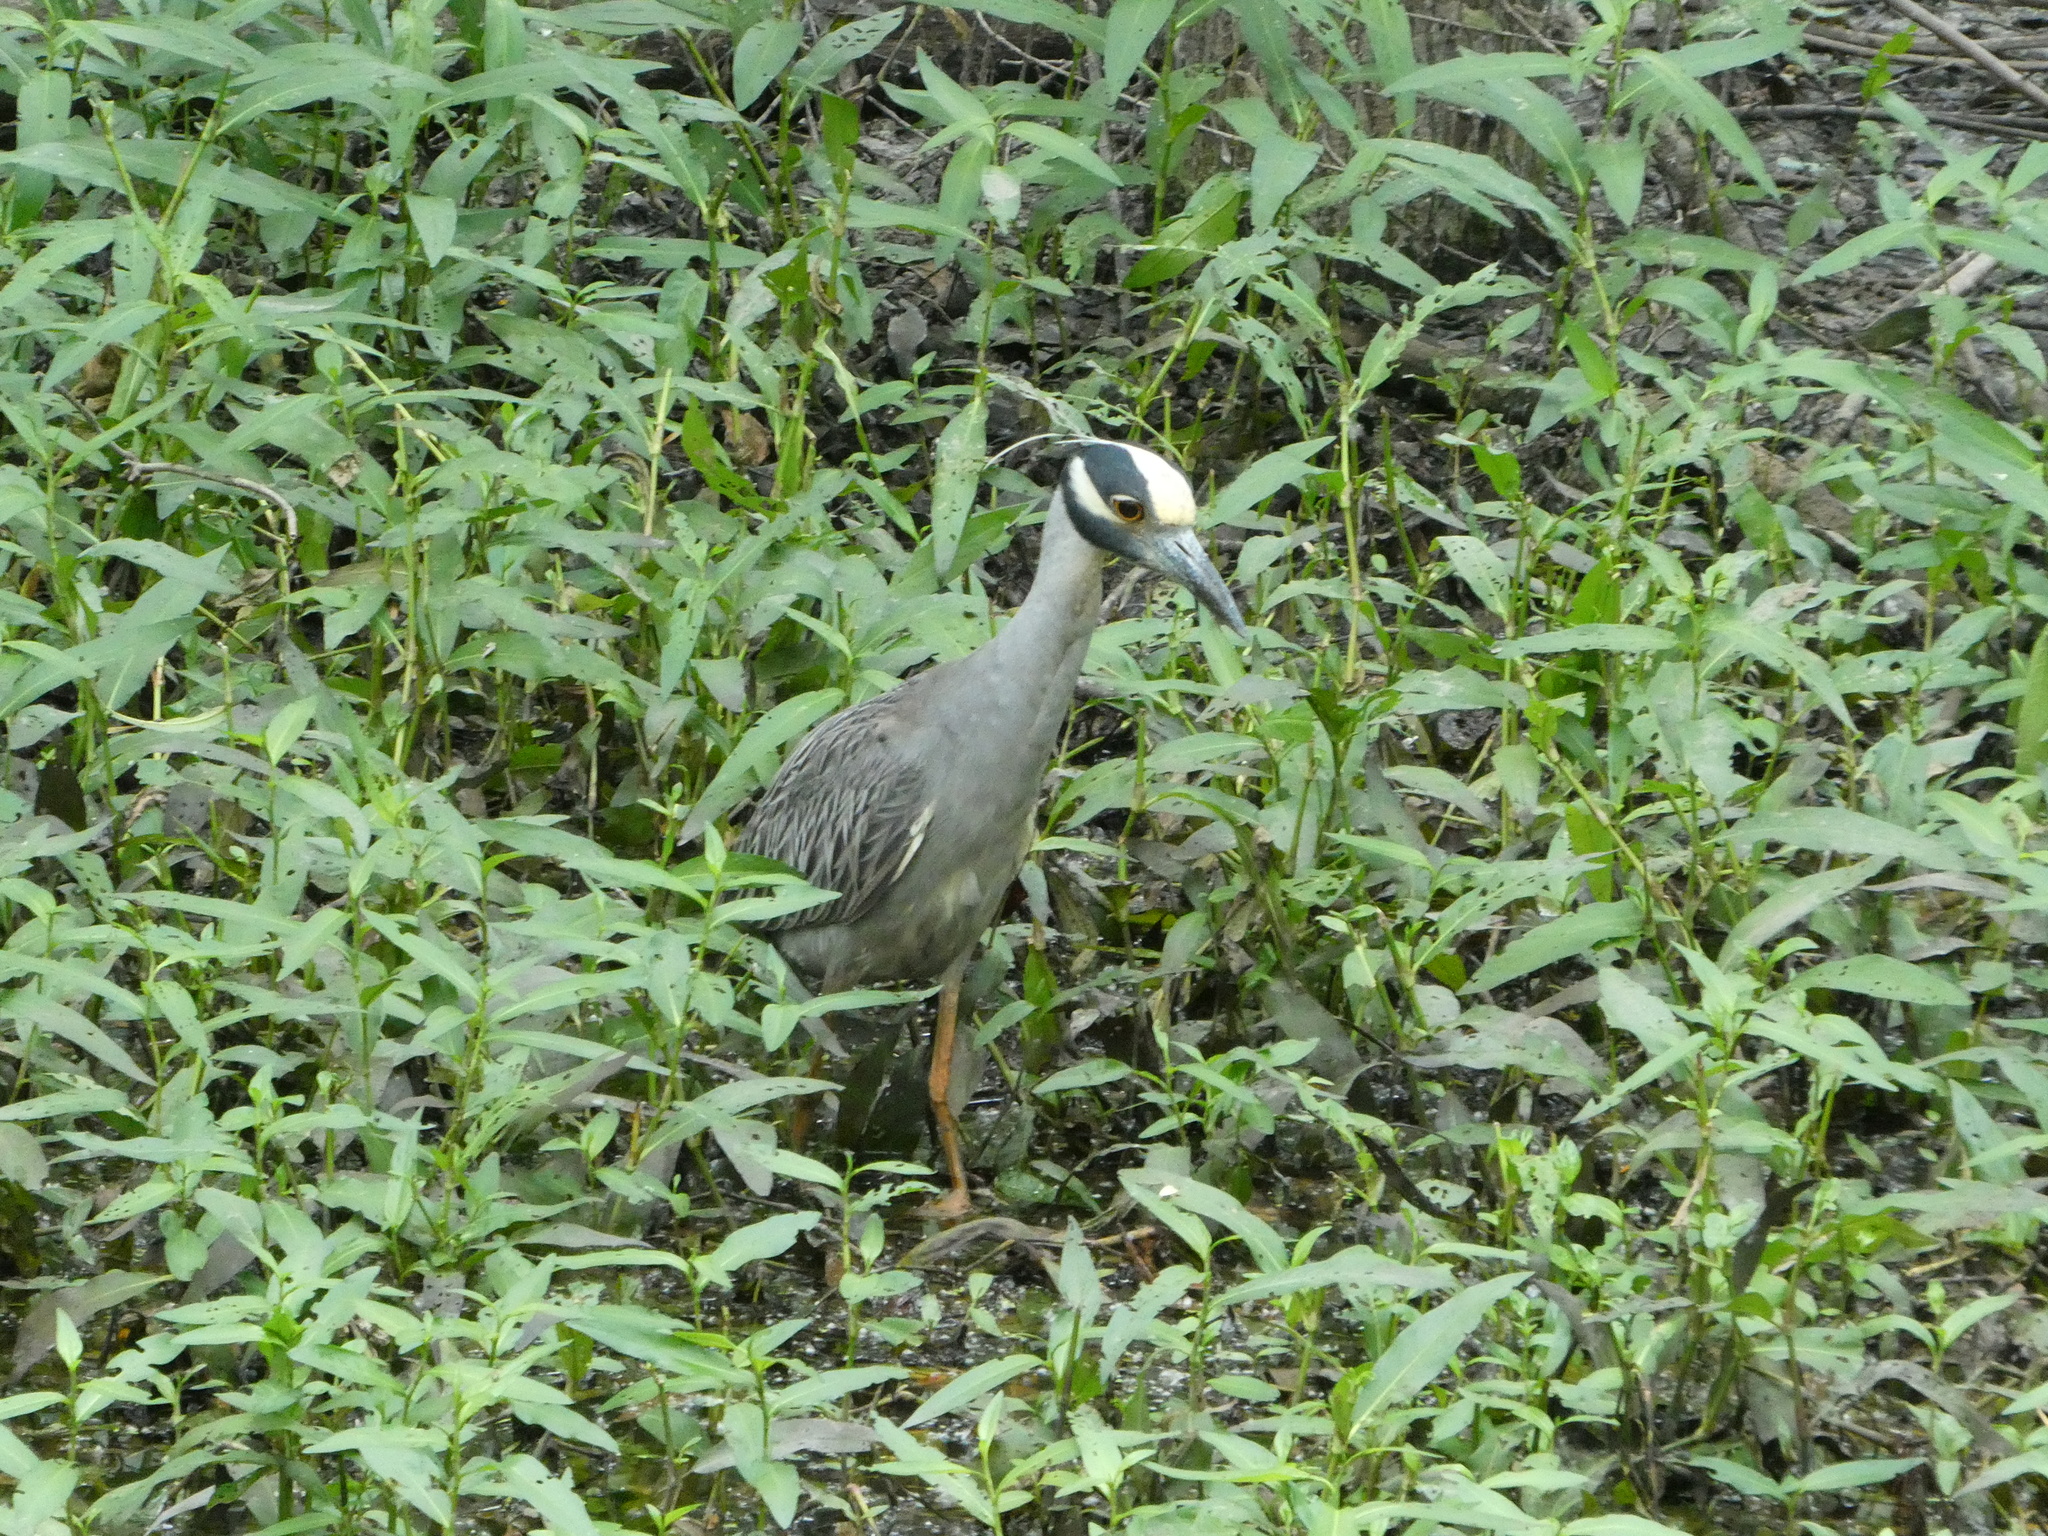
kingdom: Animalia
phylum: Chordata
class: Aves
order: Pelecaniformes
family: Ardeidae
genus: Nyctanassa
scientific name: Nyctanassa violacea
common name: Yellow-crowned night heron
